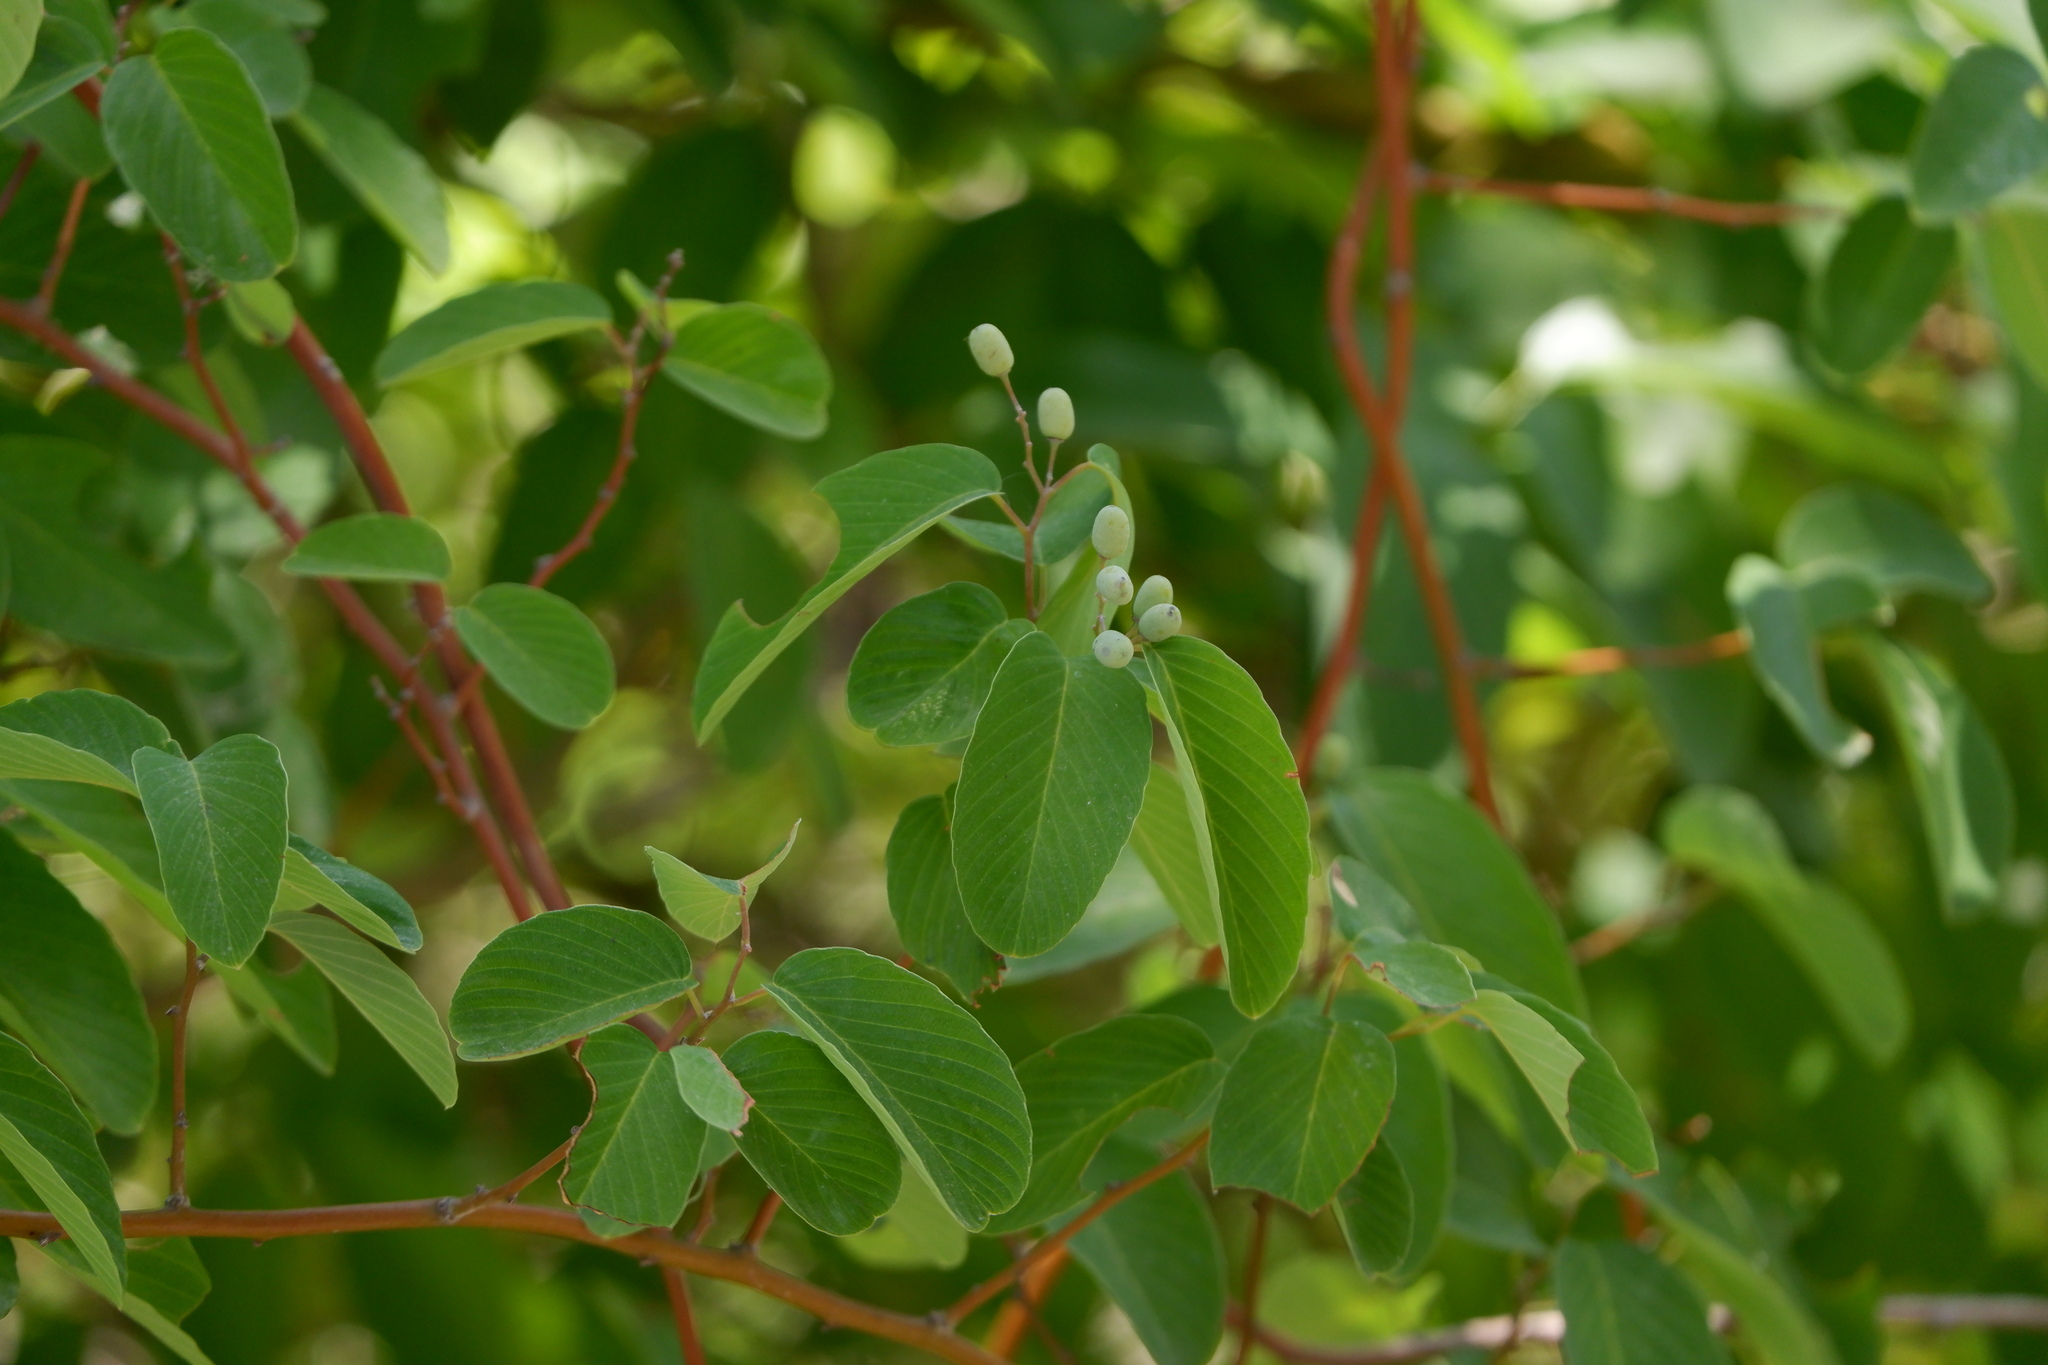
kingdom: Plantae
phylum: Tracheophyta
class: Magnoliopsida
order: Rosales
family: Rhamnaceae
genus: Berchemia
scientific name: Berchemia scandens
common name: Supplejack
